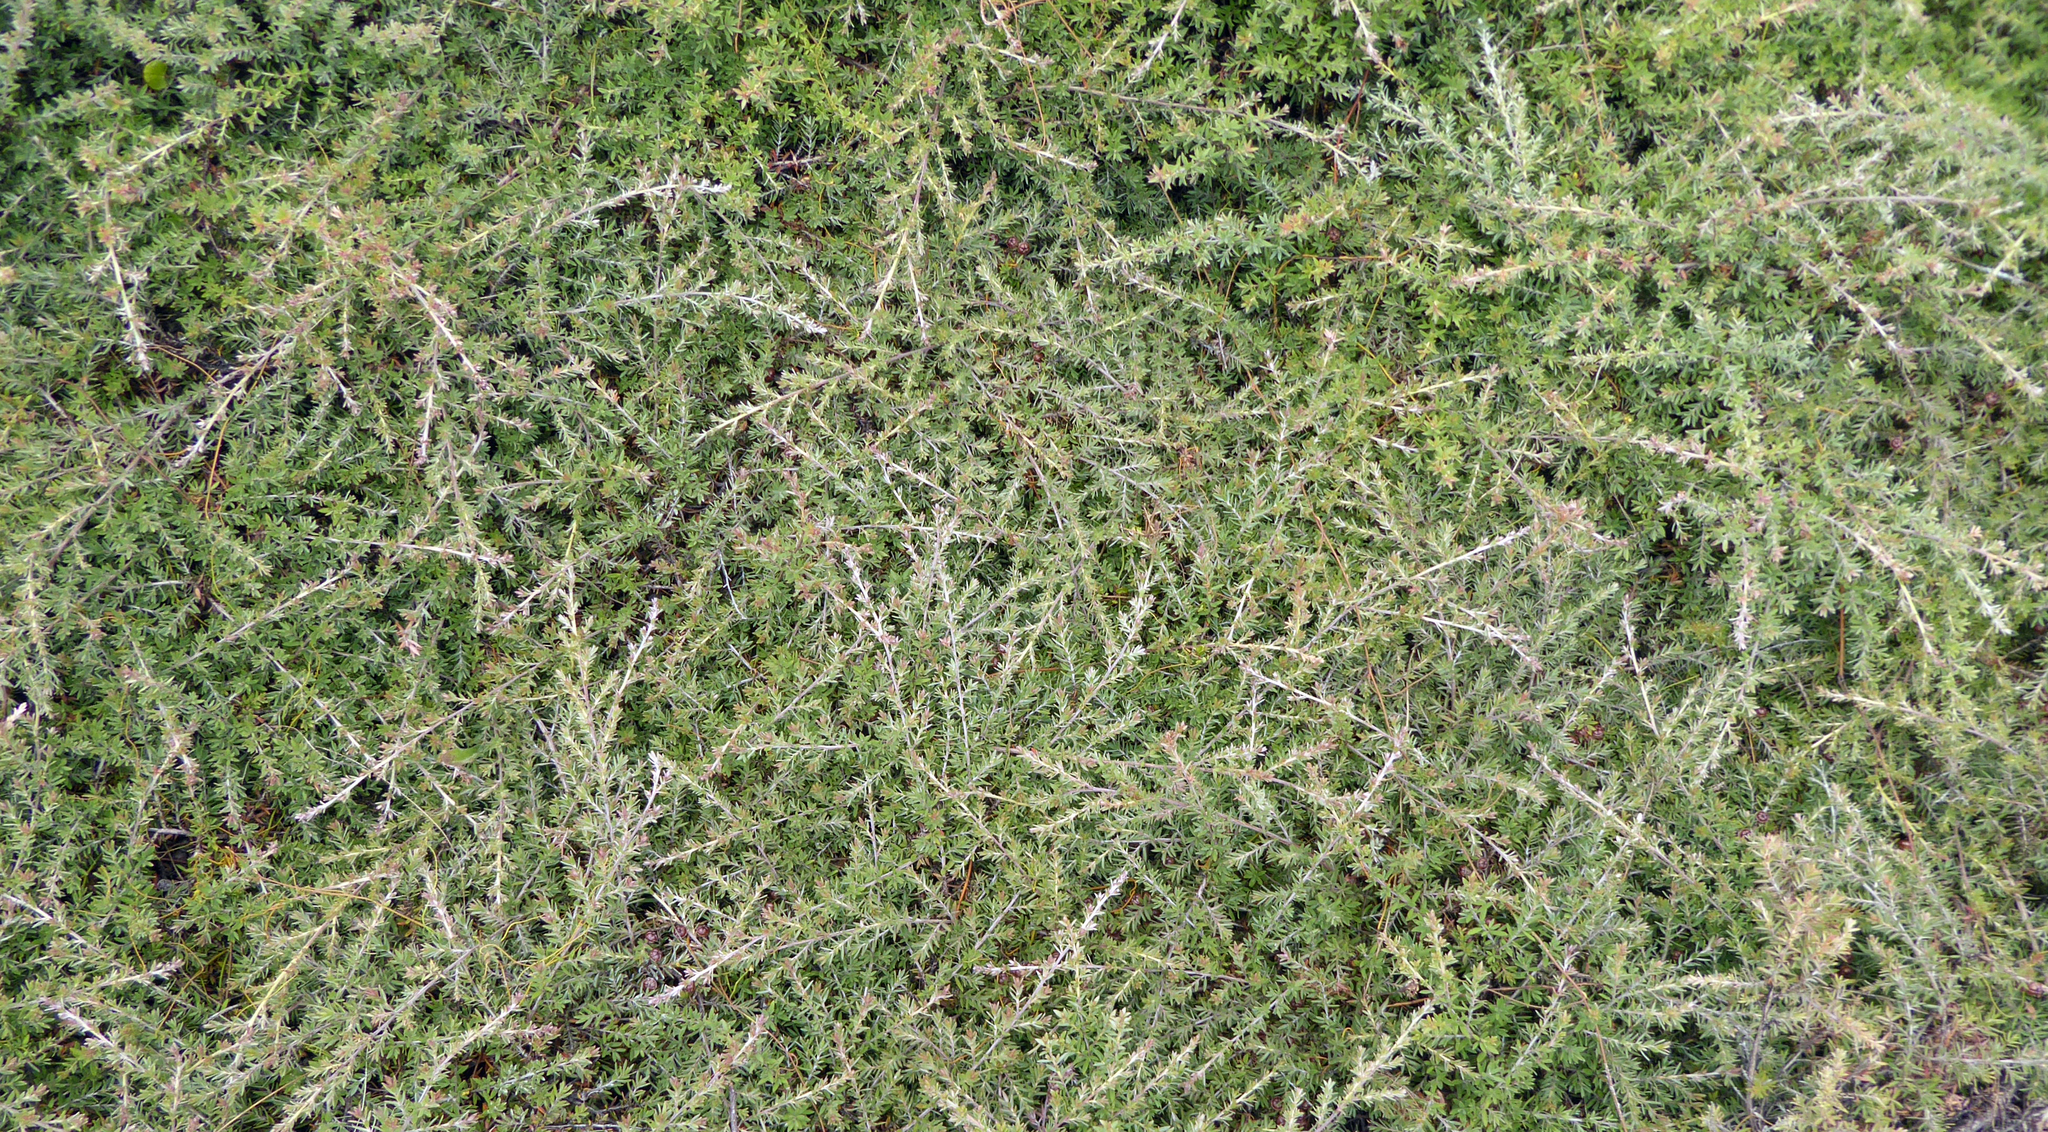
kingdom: Plantae
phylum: Tracheophyta
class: Magnoliopsida
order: Myrtales
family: Myrtaceae
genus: Leptospermum
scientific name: Leptospermum scoparium
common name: Broom tea-tree
